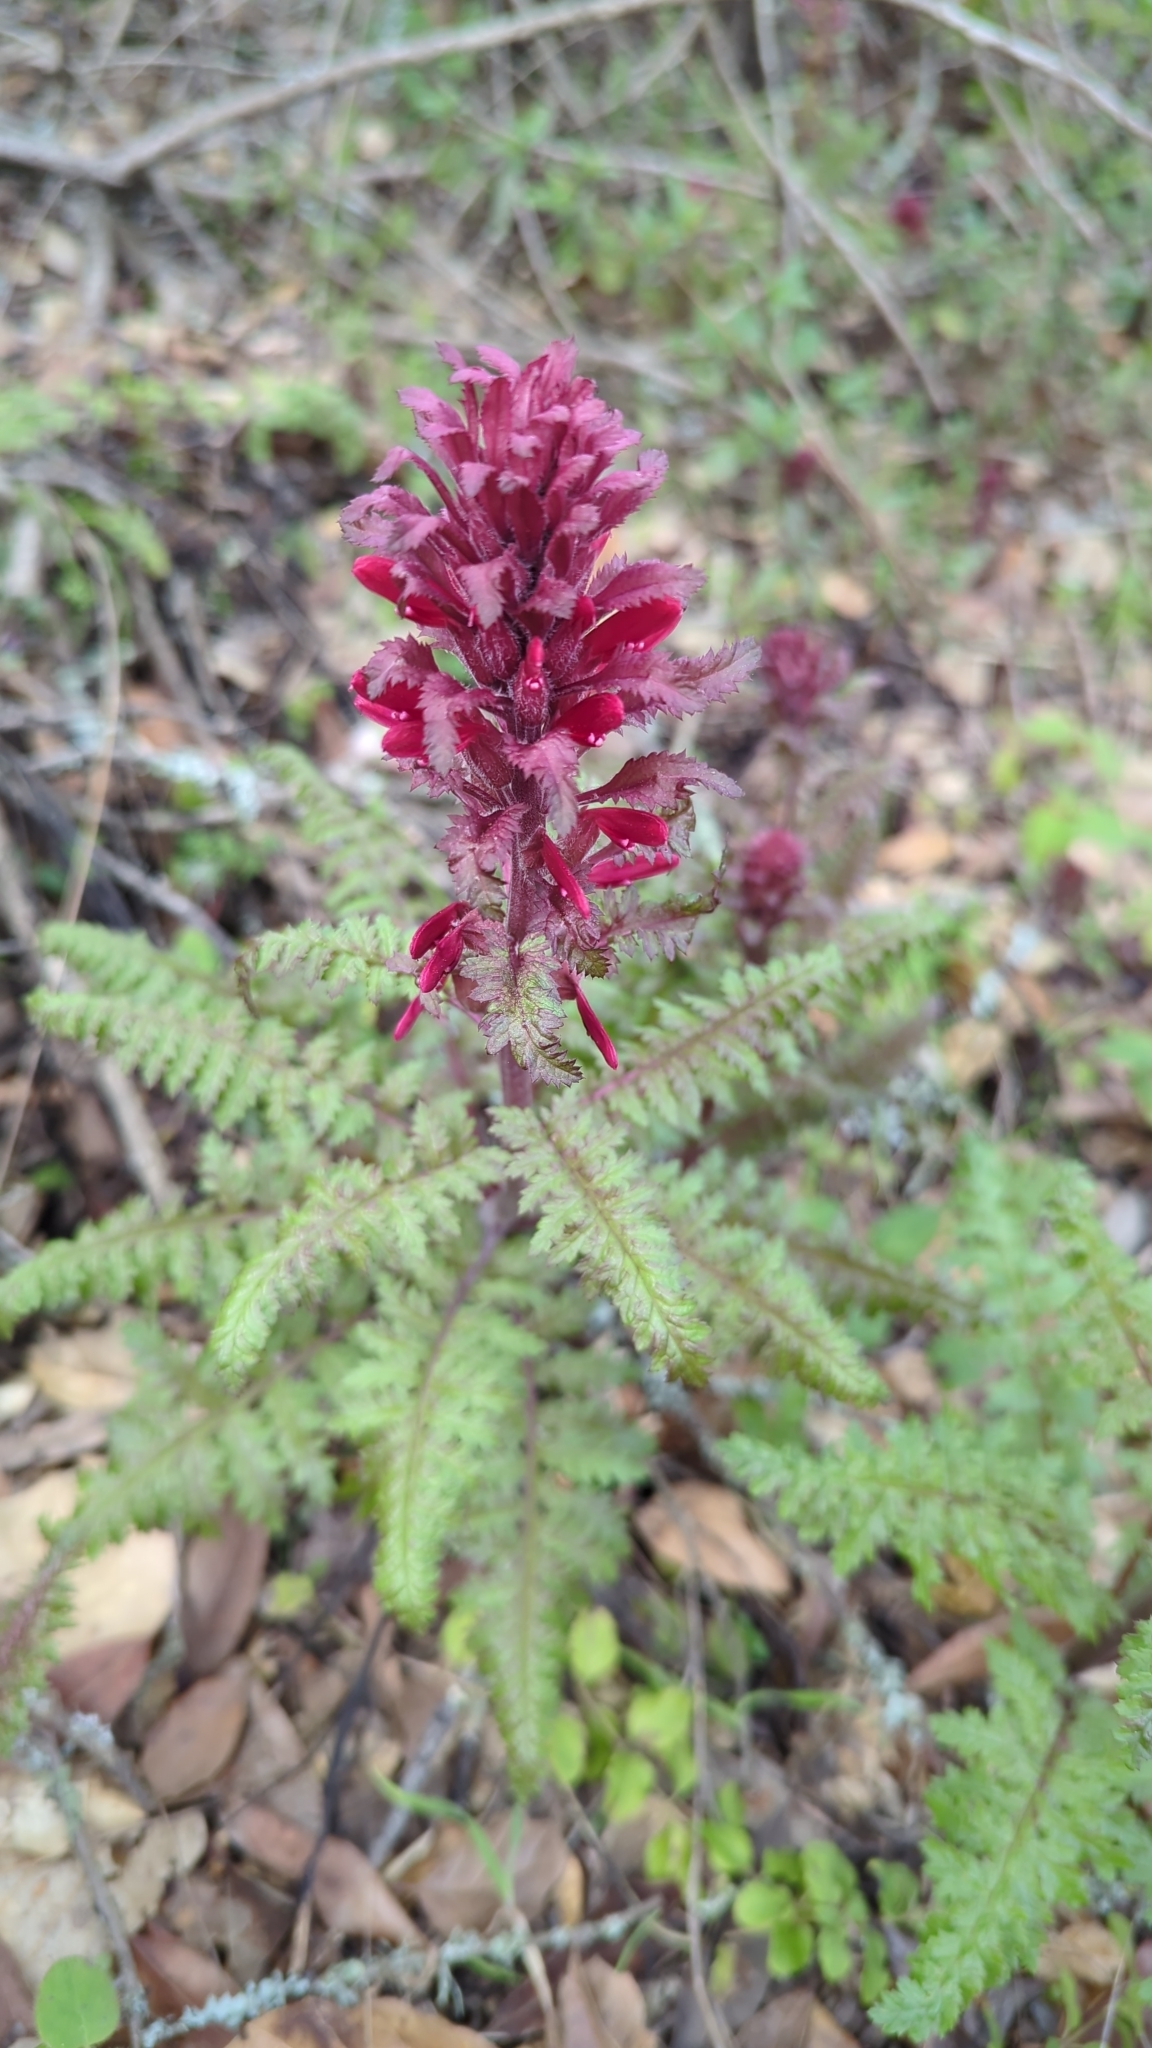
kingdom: Plantae
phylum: Tracheophyta
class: Magnoliopsida
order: Lamiales
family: Orobanchaceae
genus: Pedicularis
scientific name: Pedicularis densiflora
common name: Indian warrior
